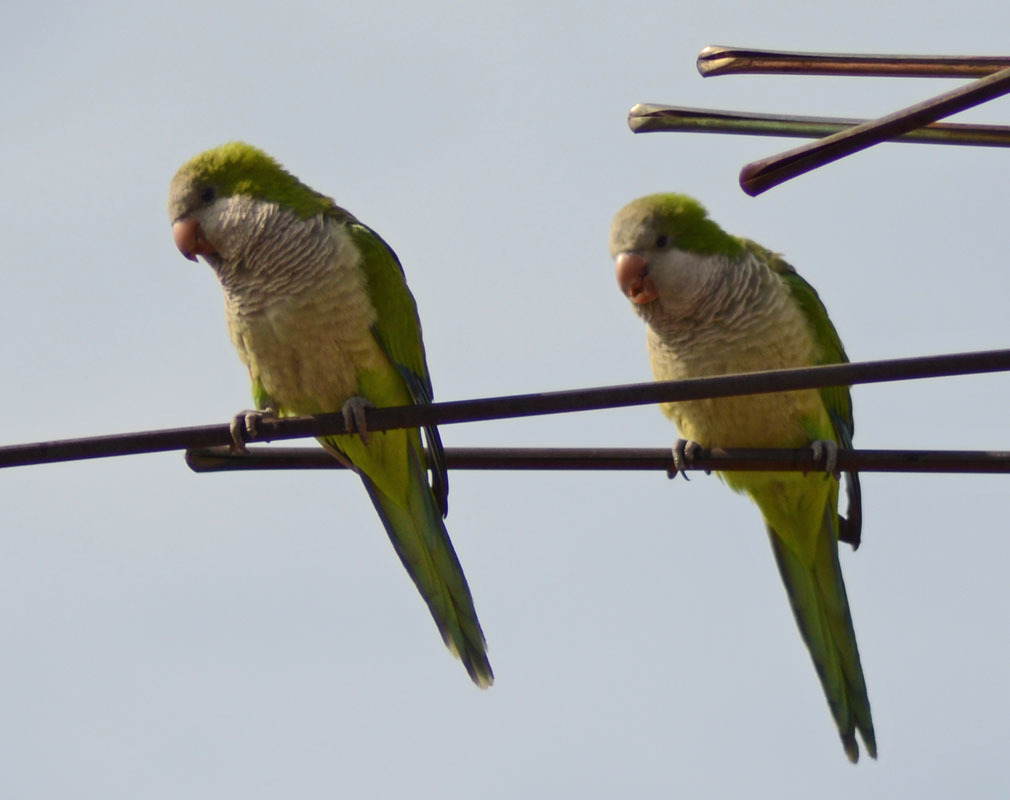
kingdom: Animalia
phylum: Chordata
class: Aves
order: Psittaciformes
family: Psittacidae
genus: Myiopsitta
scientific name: Myiopsitta monachus
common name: Monk parakeet
